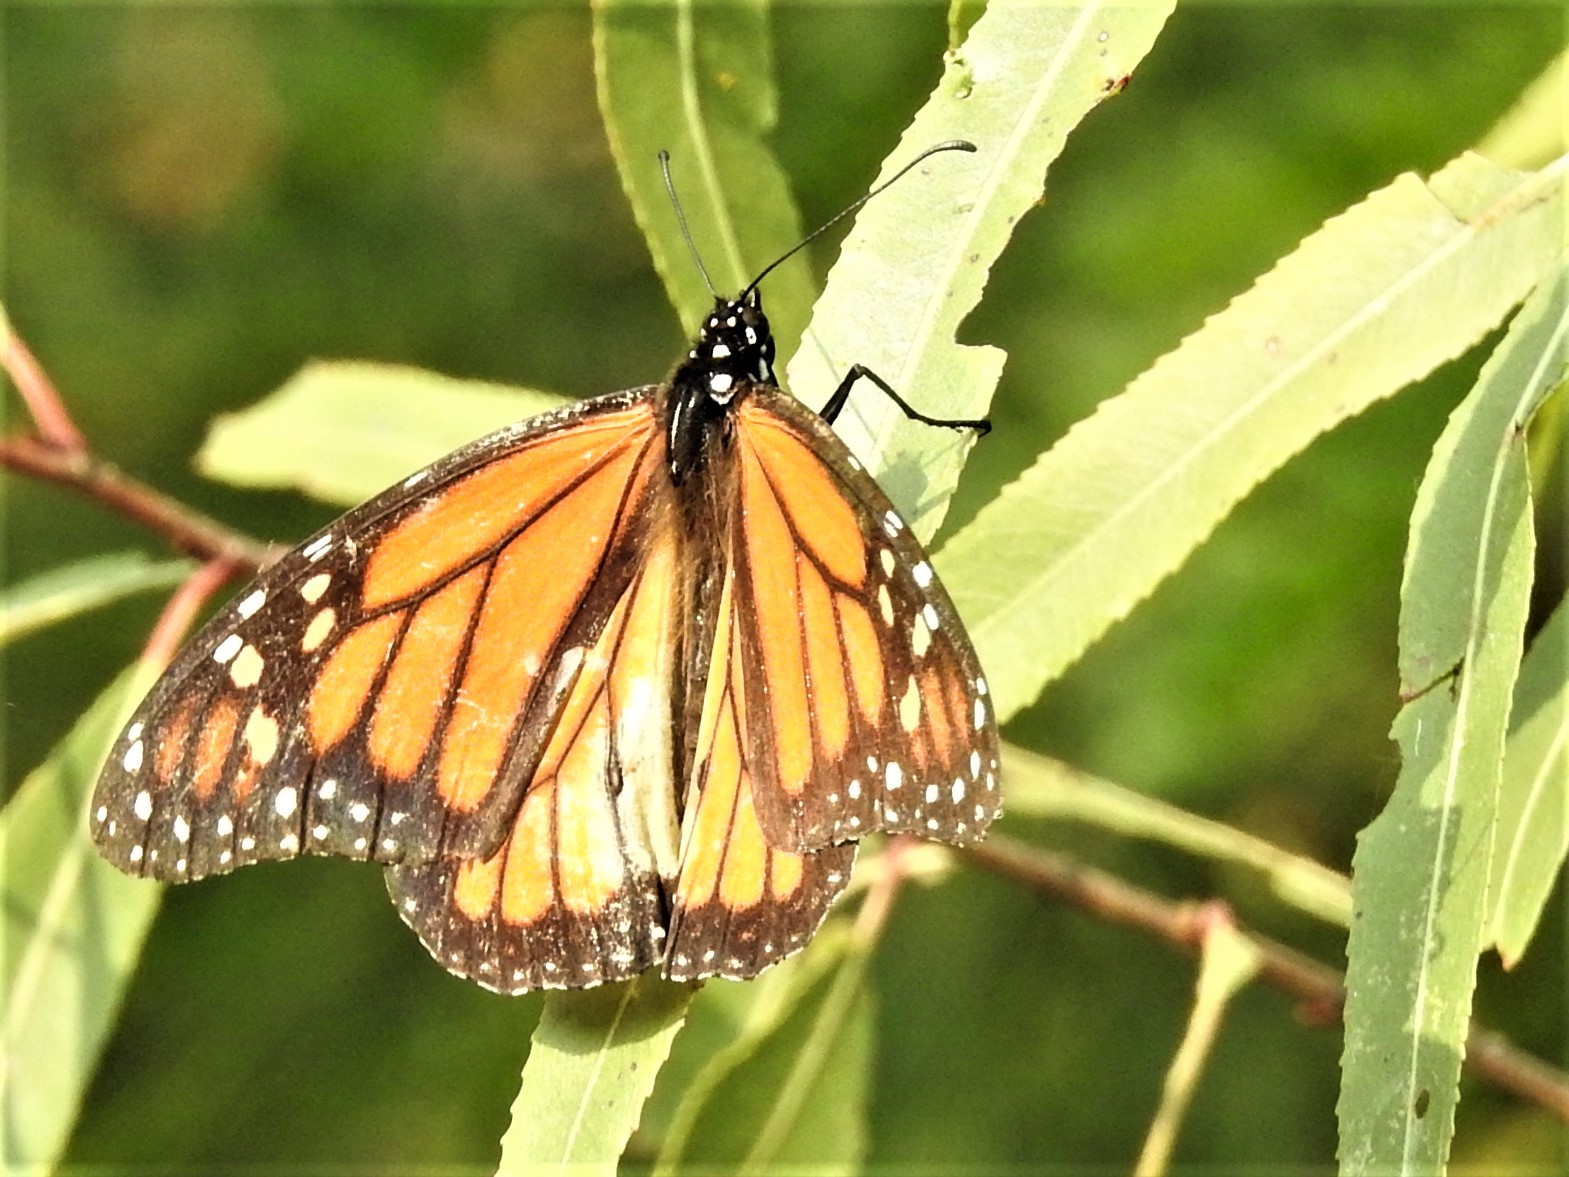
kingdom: Animalia
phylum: Arthropoda
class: Insecta
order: Lepidoptera
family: Nymphalidae
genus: Danaus
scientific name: Danaus plexippus
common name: Monarch
